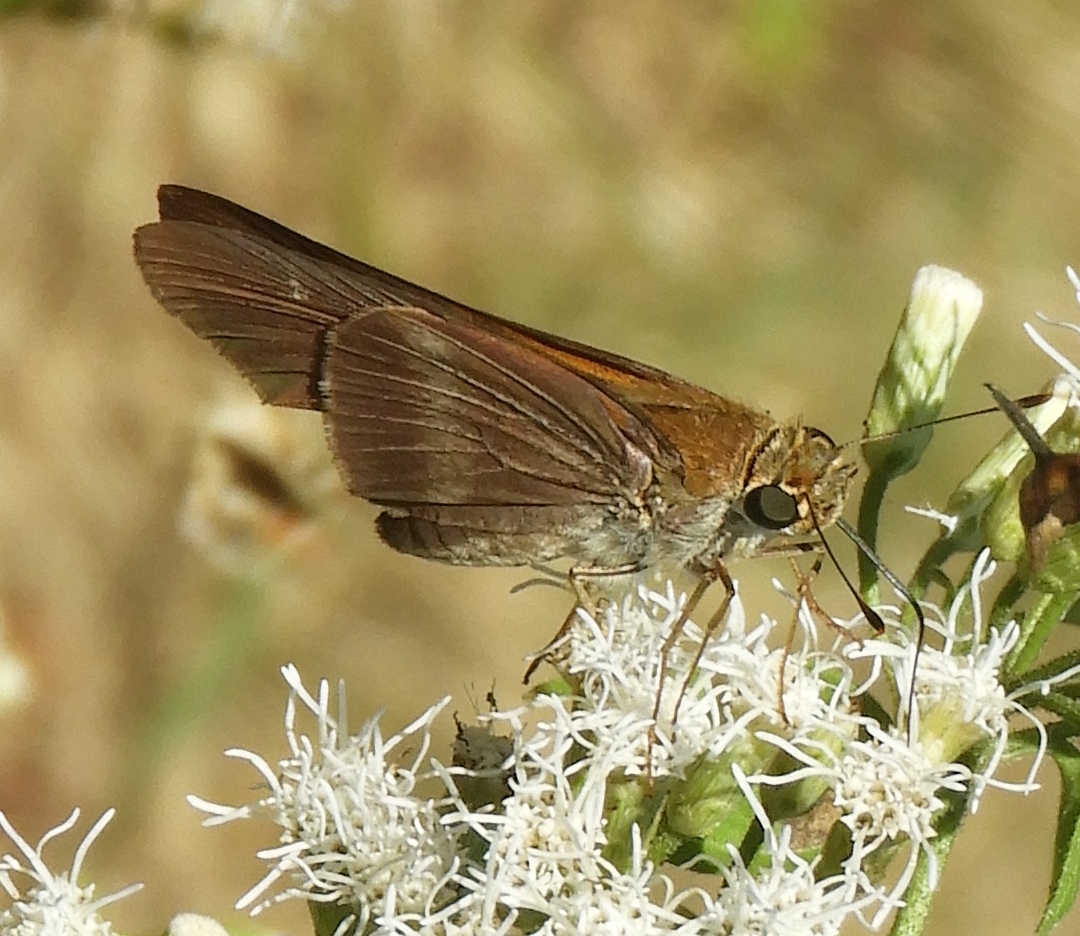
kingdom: Animalia
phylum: Arthropoda
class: Insecta
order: Lepidoptera
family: Hesperiidae
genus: Panoquina
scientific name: Panoquina fusina
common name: Evans' skipper
